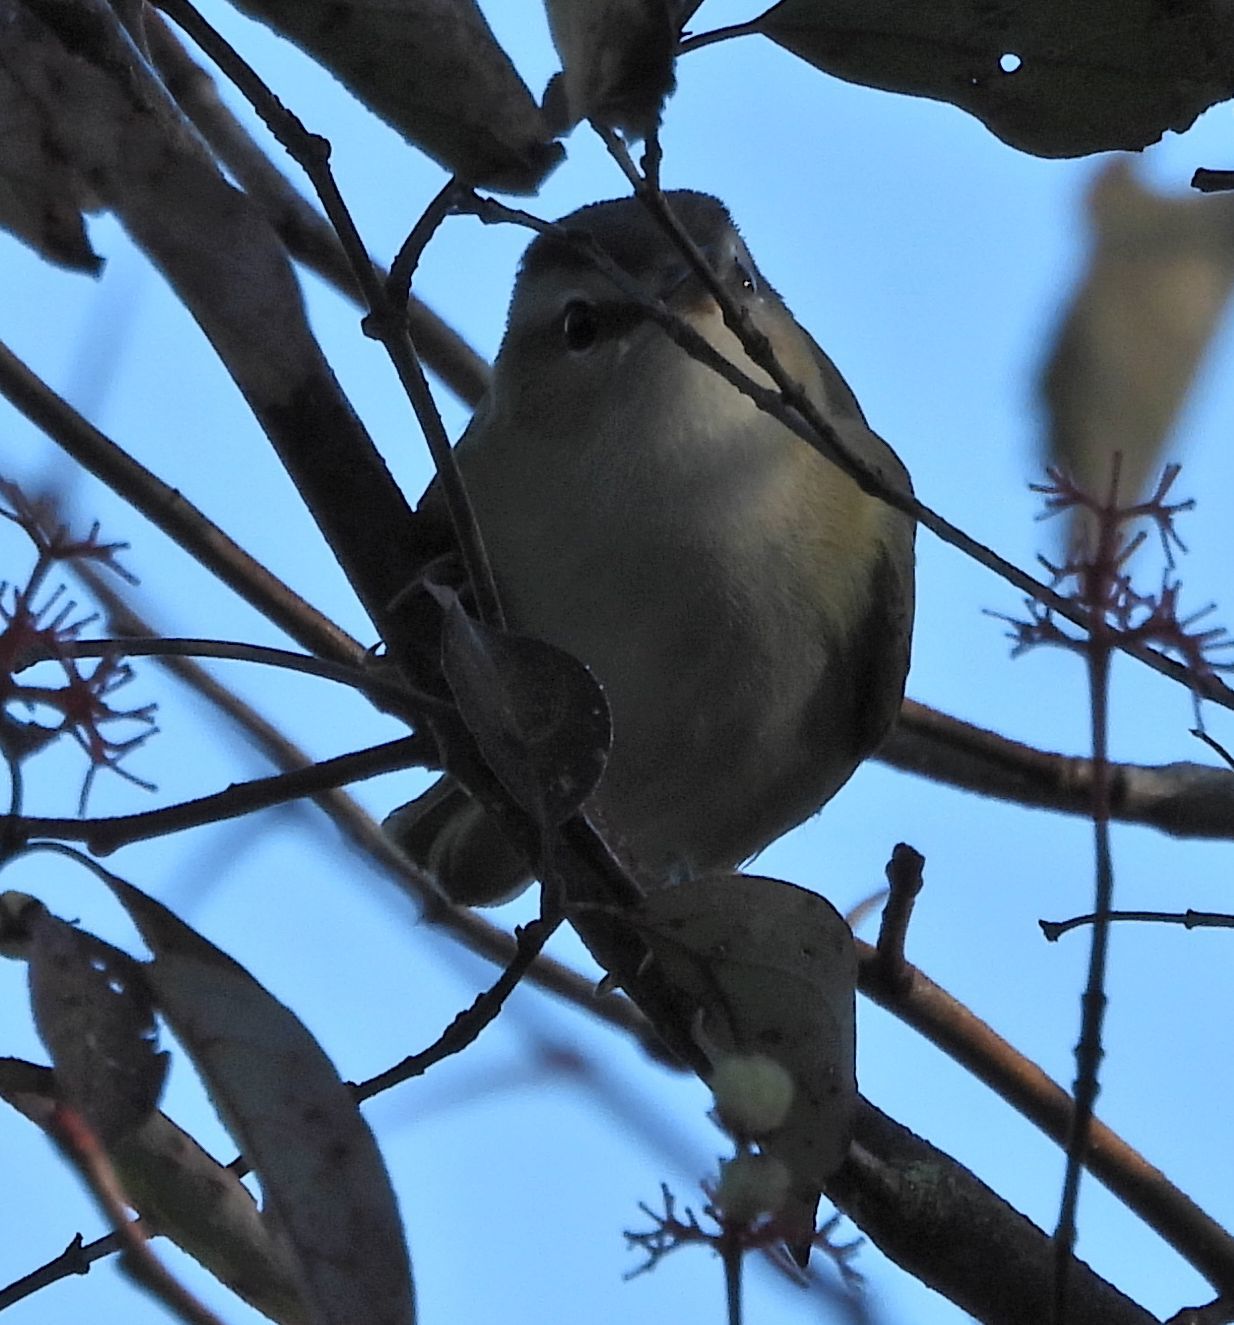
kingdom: Animalia
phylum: Chordata
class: Aves
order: Passeriformes
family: Vireonidae
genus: Vireo
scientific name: Vireo olivaceus
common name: Red-eyed vireo
